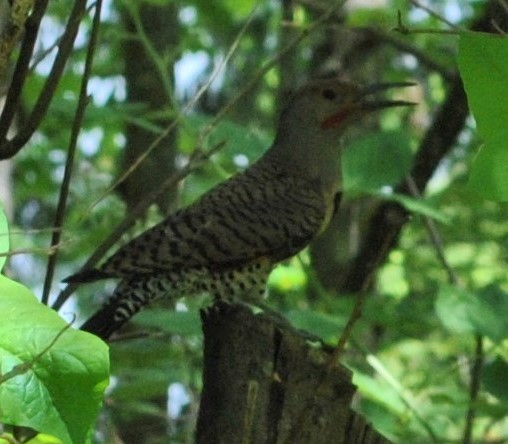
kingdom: Animalia
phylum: Chordata
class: Aves
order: Piciformes
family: Picidae
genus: Colaptes
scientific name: Colaptes auratus
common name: Northern flicker
